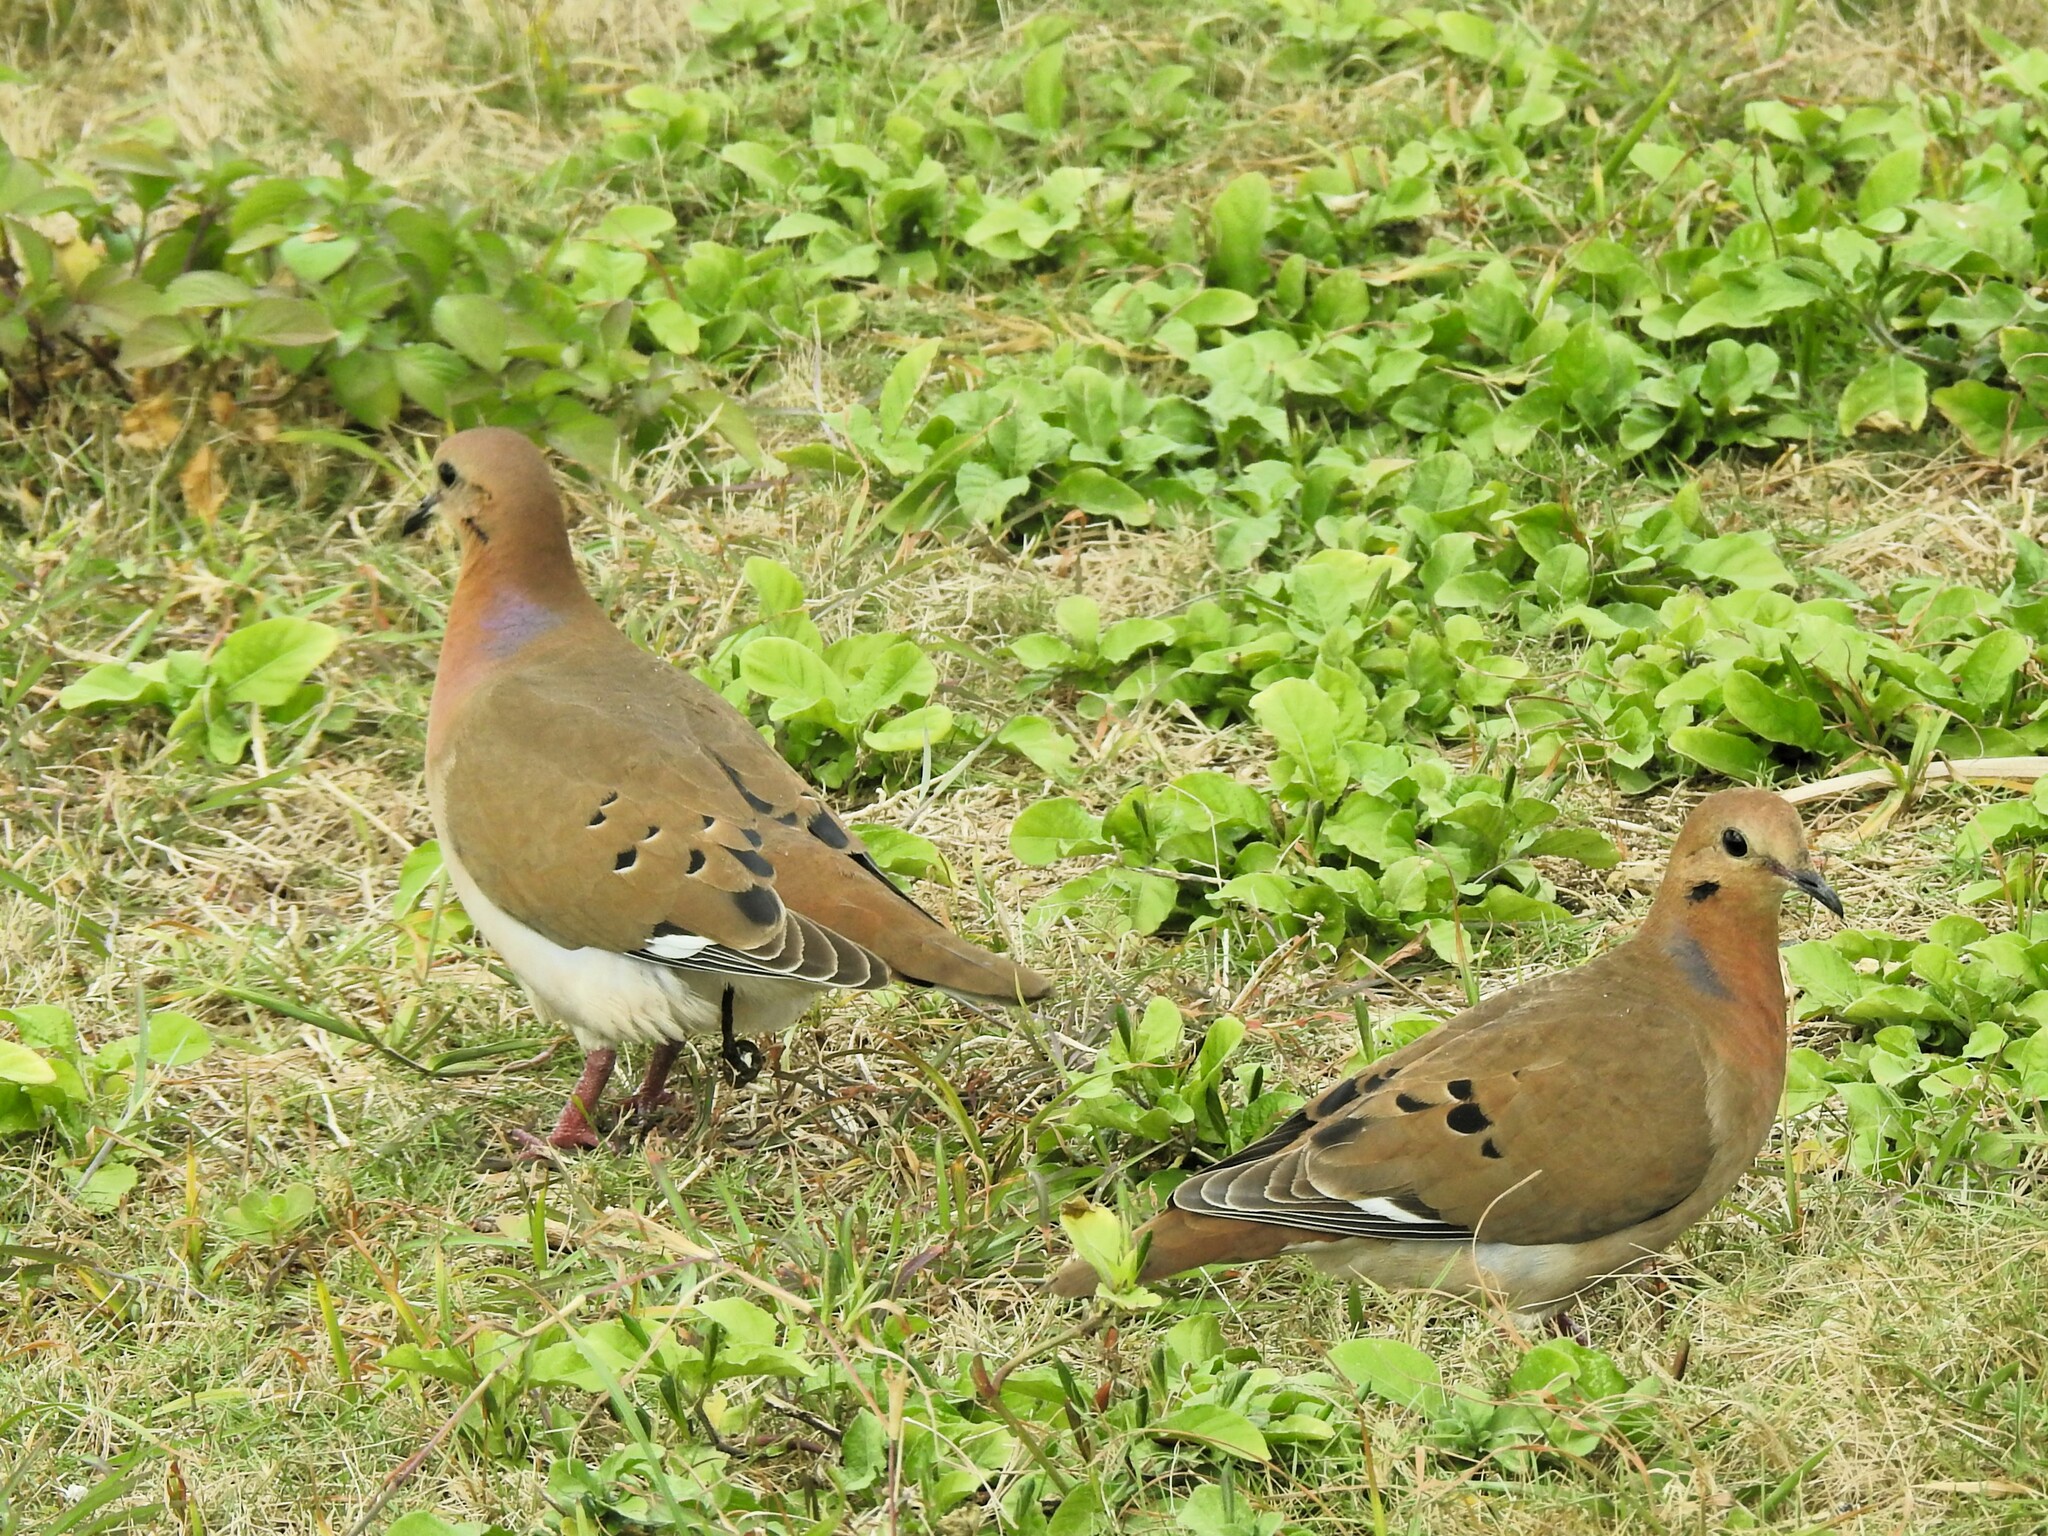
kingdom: Animalia
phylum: Chordata
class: Aves
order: Columbiformes
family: Columbidae
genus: Zenaida
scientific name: Zenaida aurita
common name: Zenaida dove
